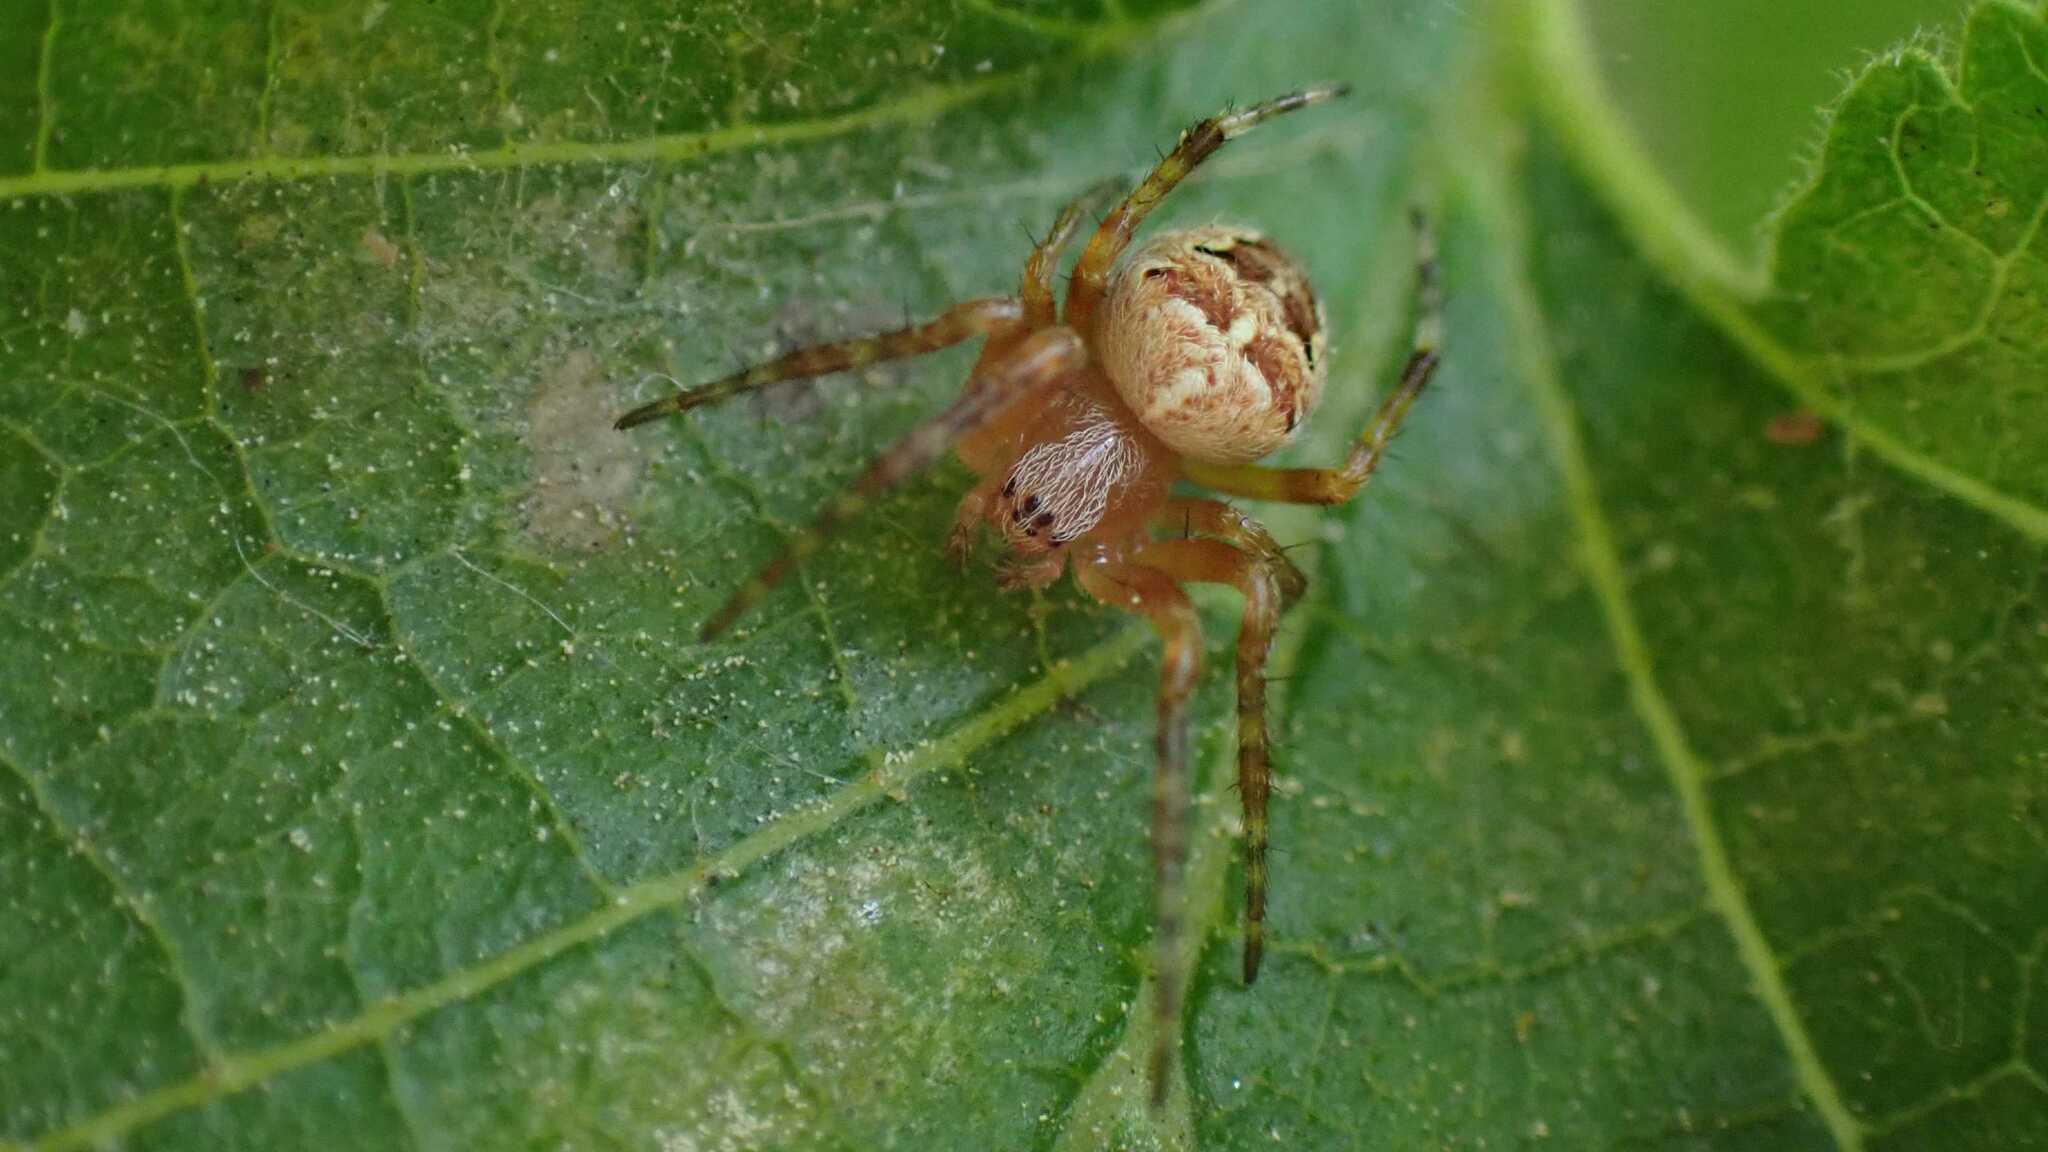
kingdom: Animalia
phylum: Arthropoda
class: Arachnida
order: Araneae
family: Araneidae
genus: Araneus
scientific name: Araneus diadematus
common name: Cross orbweaver
